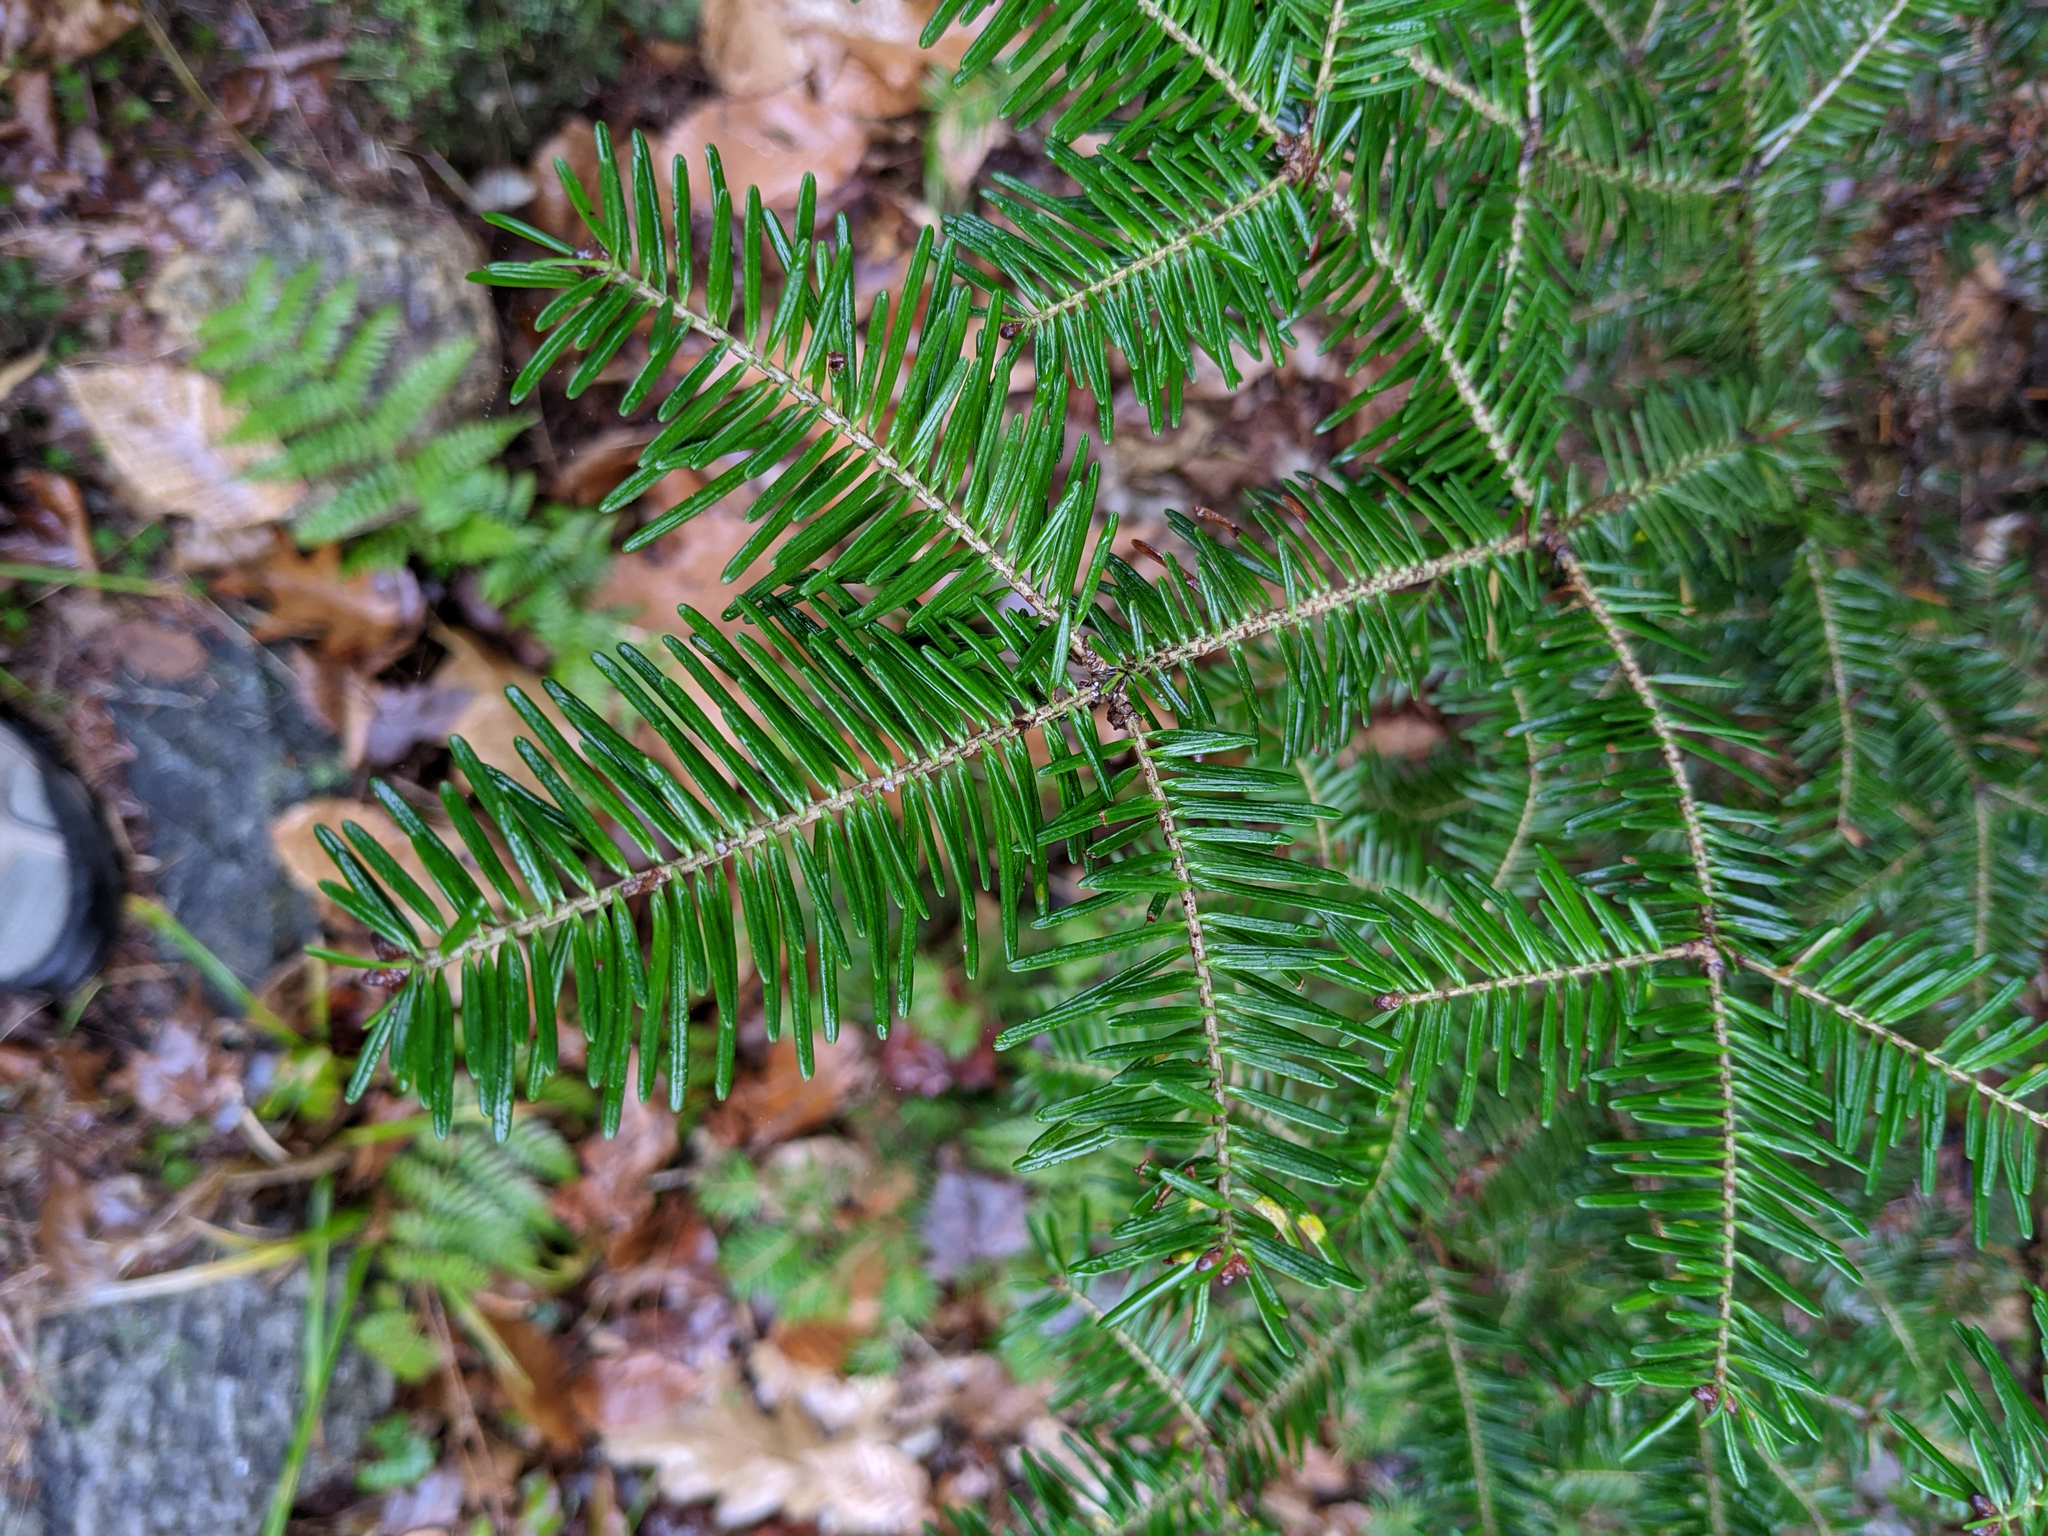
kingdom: Plantae
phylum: Tracheophyta
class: Pinopsida
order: Pinales
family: Pinaceae
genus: Abies
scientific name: Abies balsamea
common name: Balsam fir
